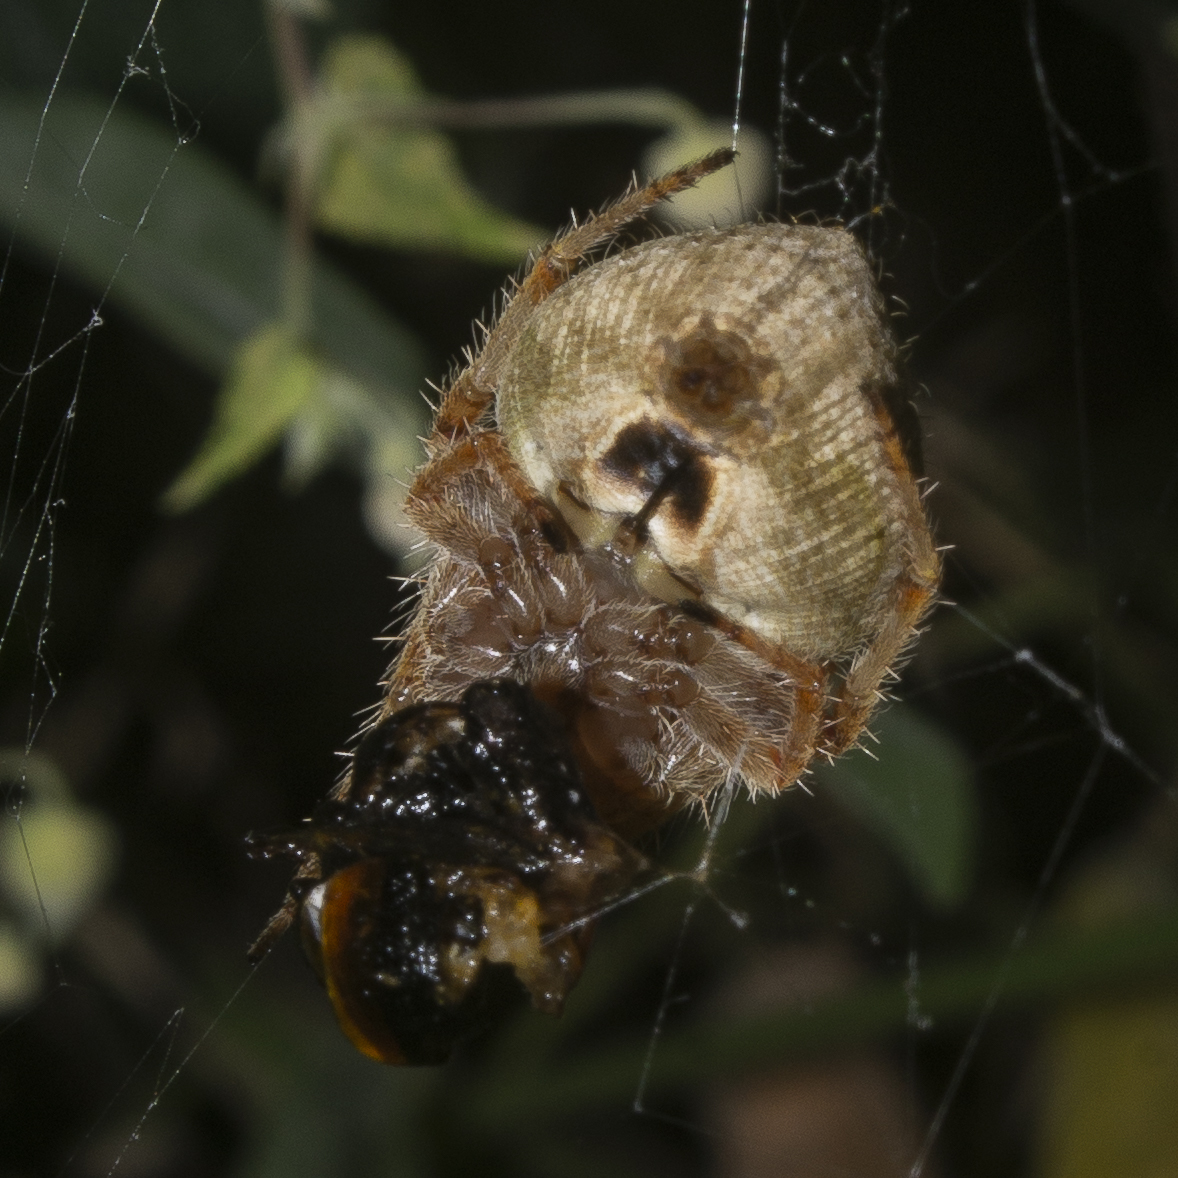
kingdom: Animalia
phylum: Arthropoda
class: Arachnida
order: Araneae
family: Araneidae
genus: Eriophora
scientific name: Eriophora edax
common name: Orb weavers
